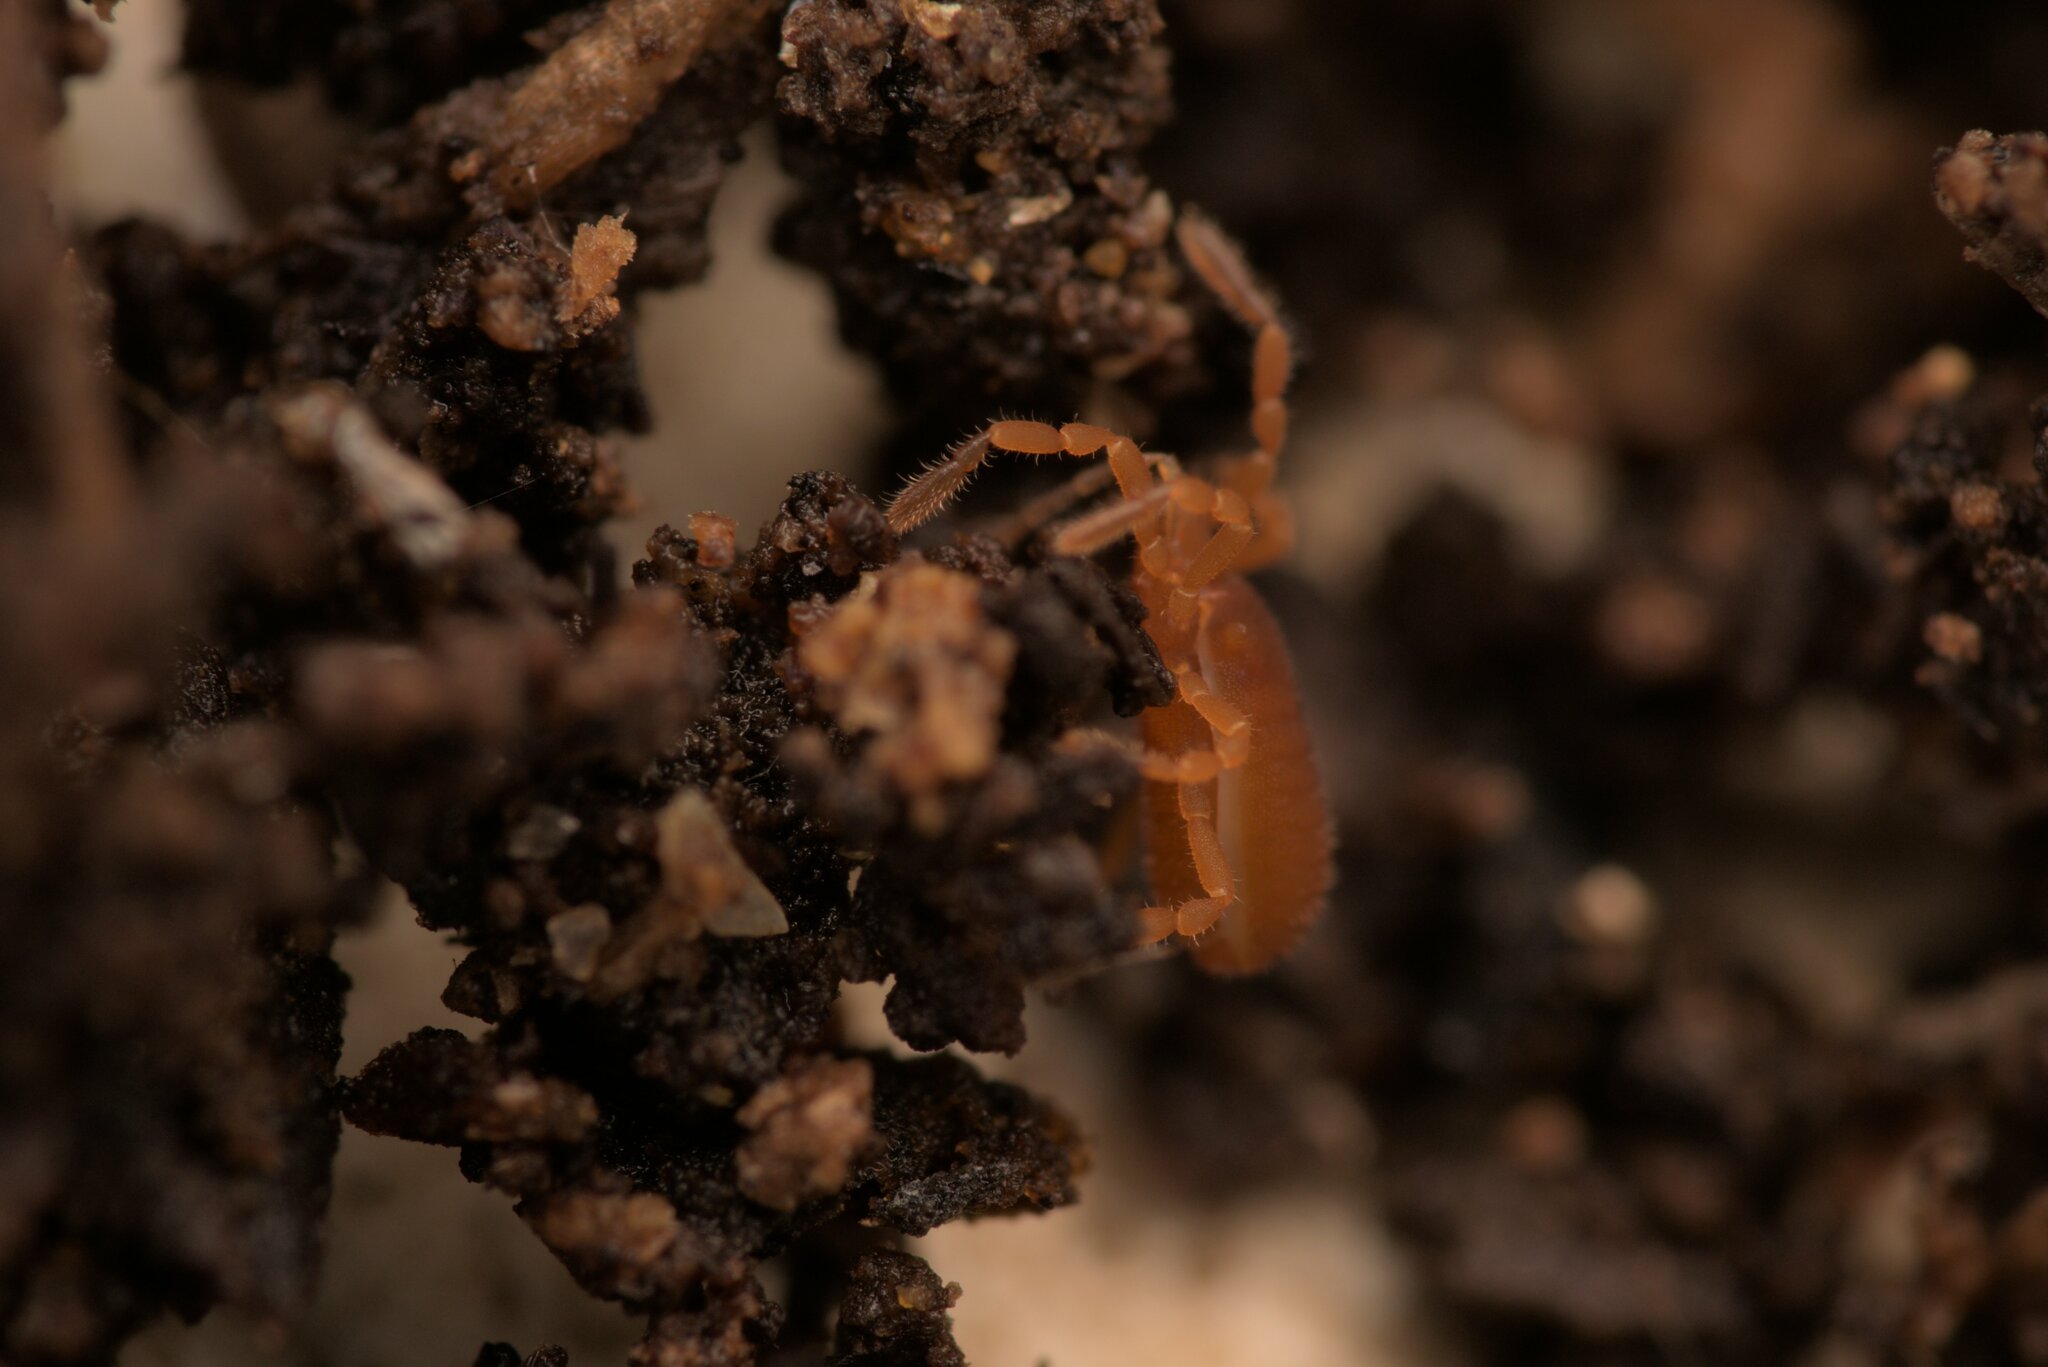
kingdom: Animalia
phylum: Arthropoda
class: Arachnida
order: Opiliones
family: Sironidae
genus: Siro
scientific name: Siro rubens
